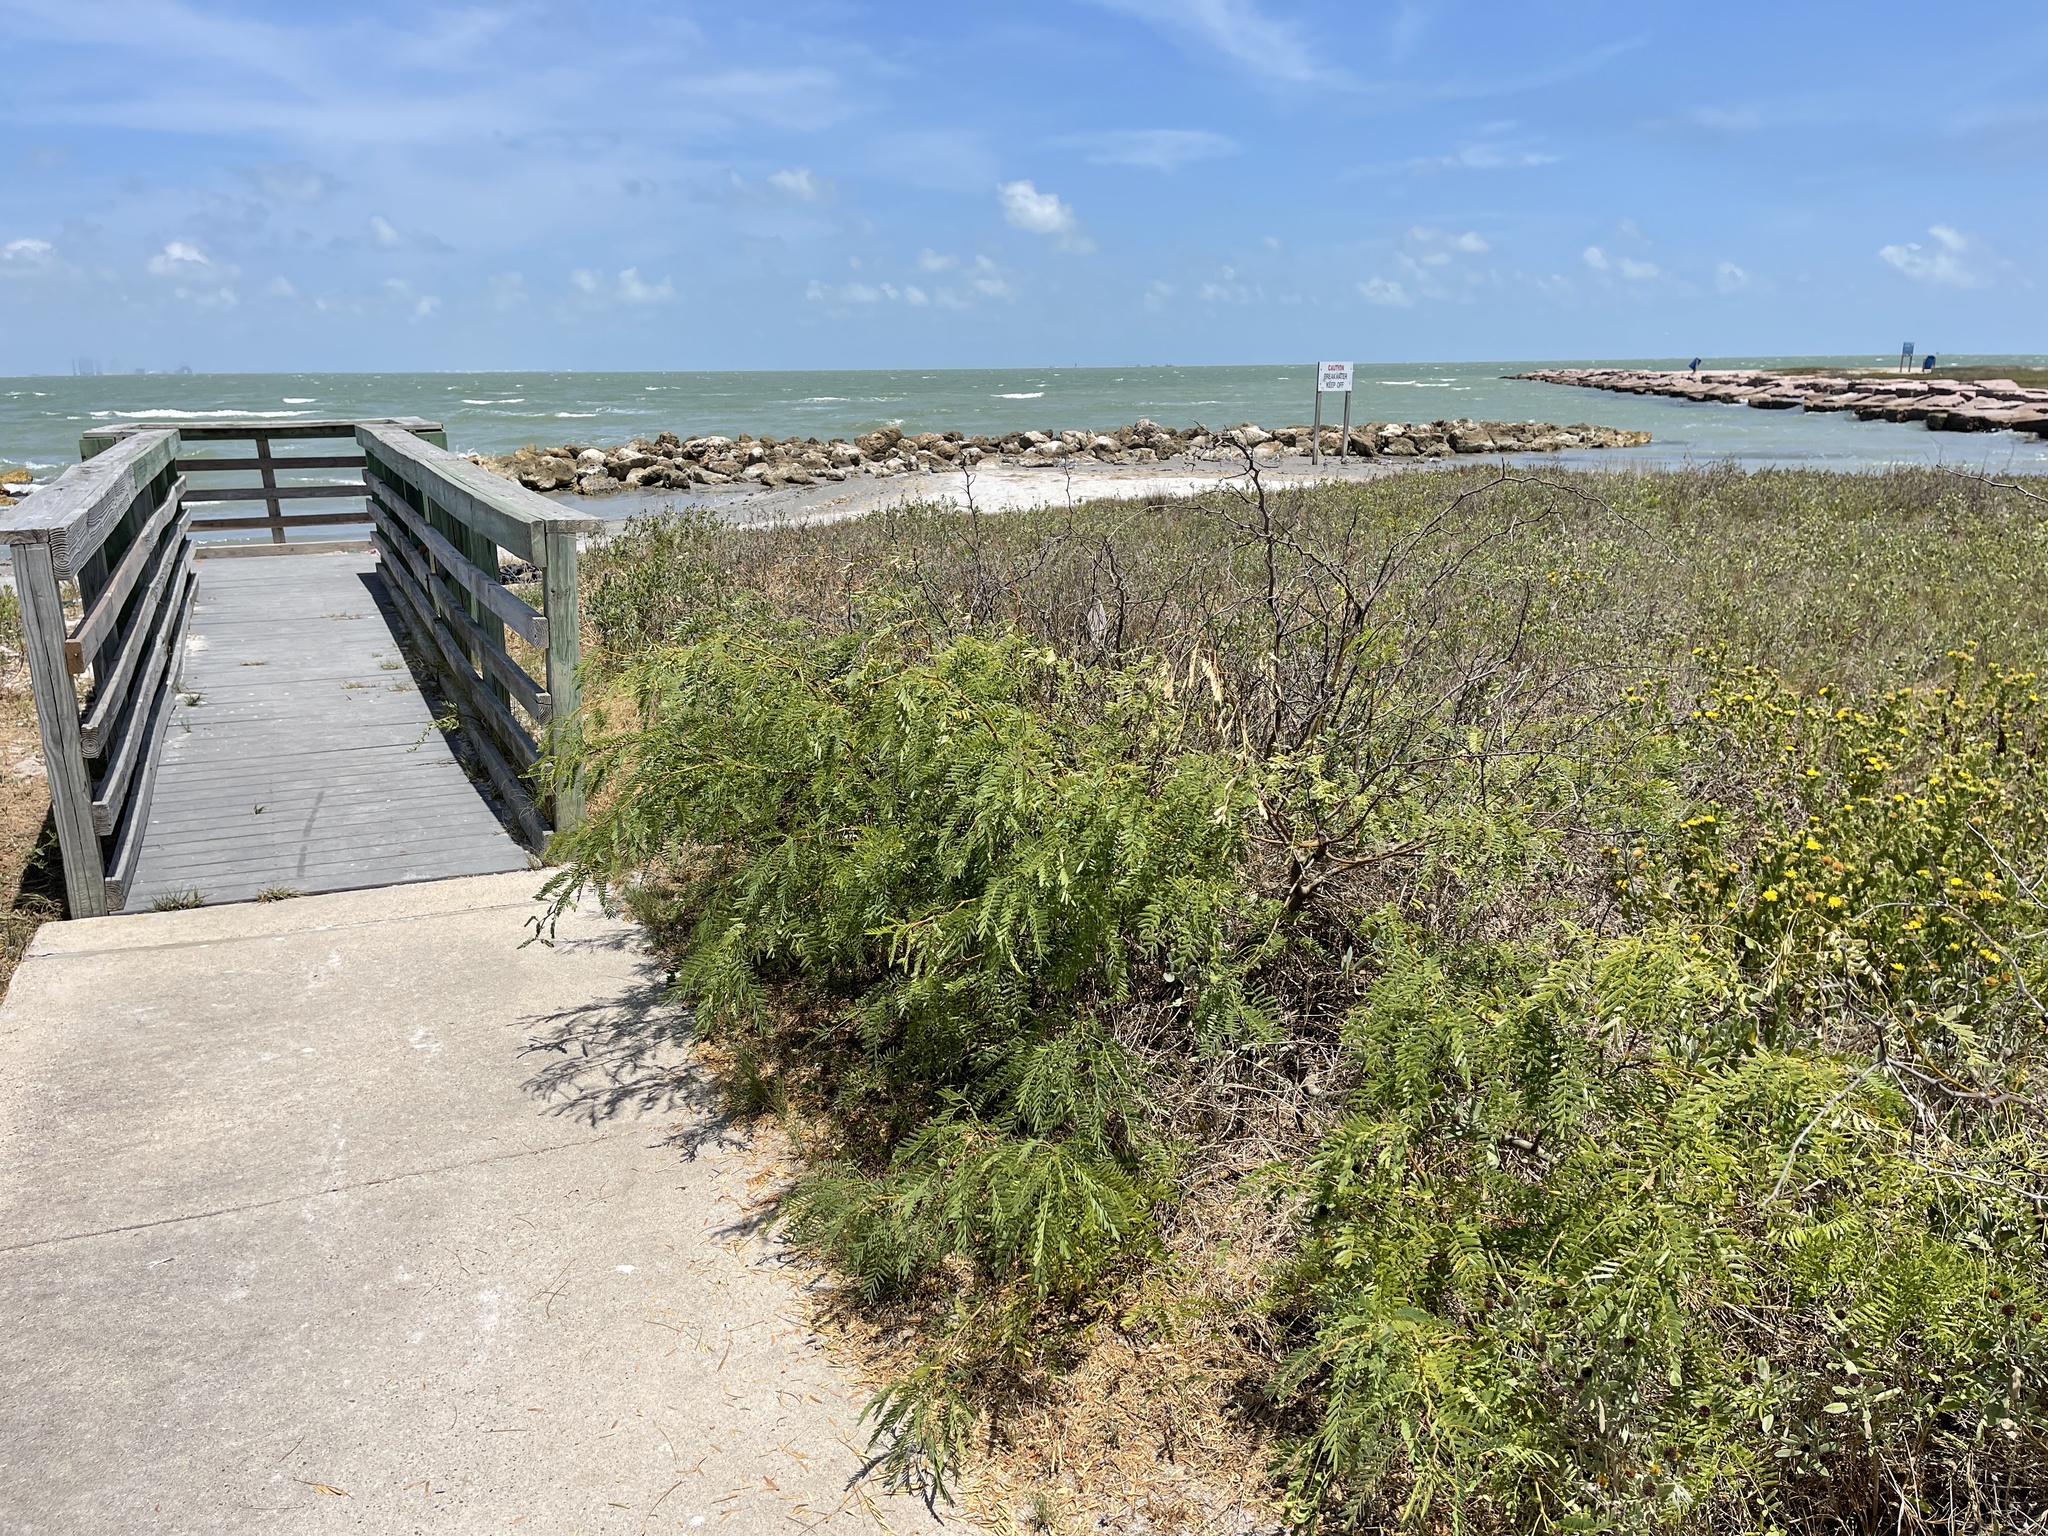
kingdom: Plantae
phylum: Tracheophyta
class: Magnoliopsida
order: Fabales
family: Fabaceae
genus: Prosopis
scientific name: Prosopis glandulosa
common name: Honey mesquite
